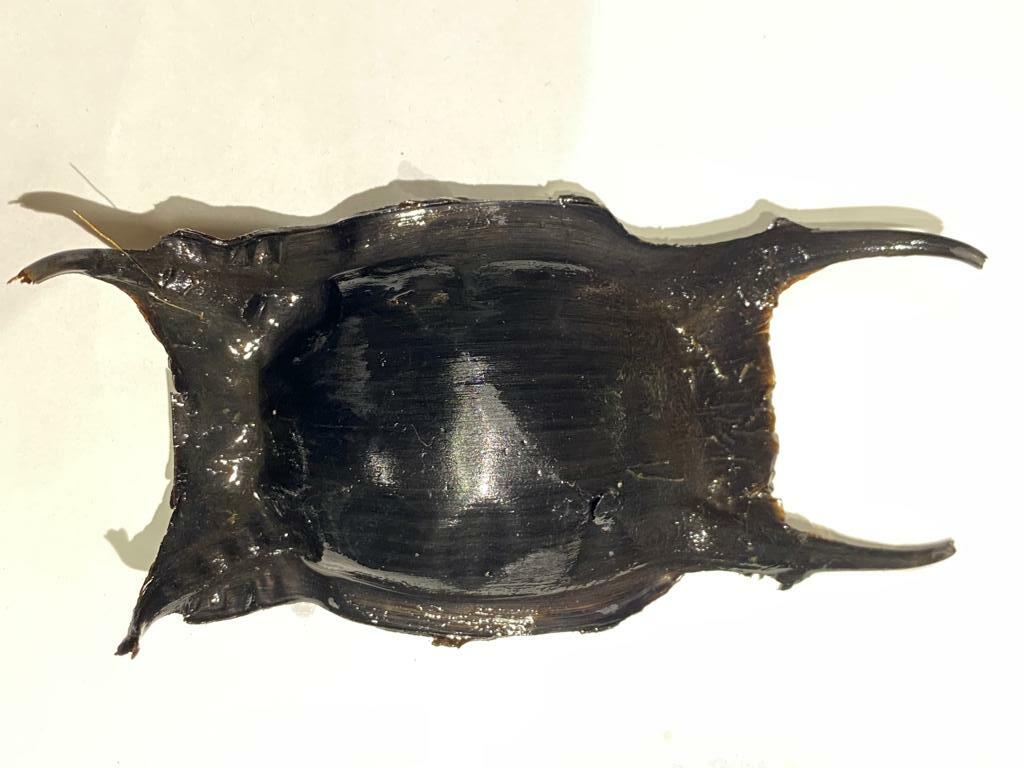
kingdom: Animalia
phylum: Chordata
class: Elasmobranchii
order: Rajiformes
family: Rajidae
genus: Raja
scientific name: Raja clavata
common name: Thornback ray
